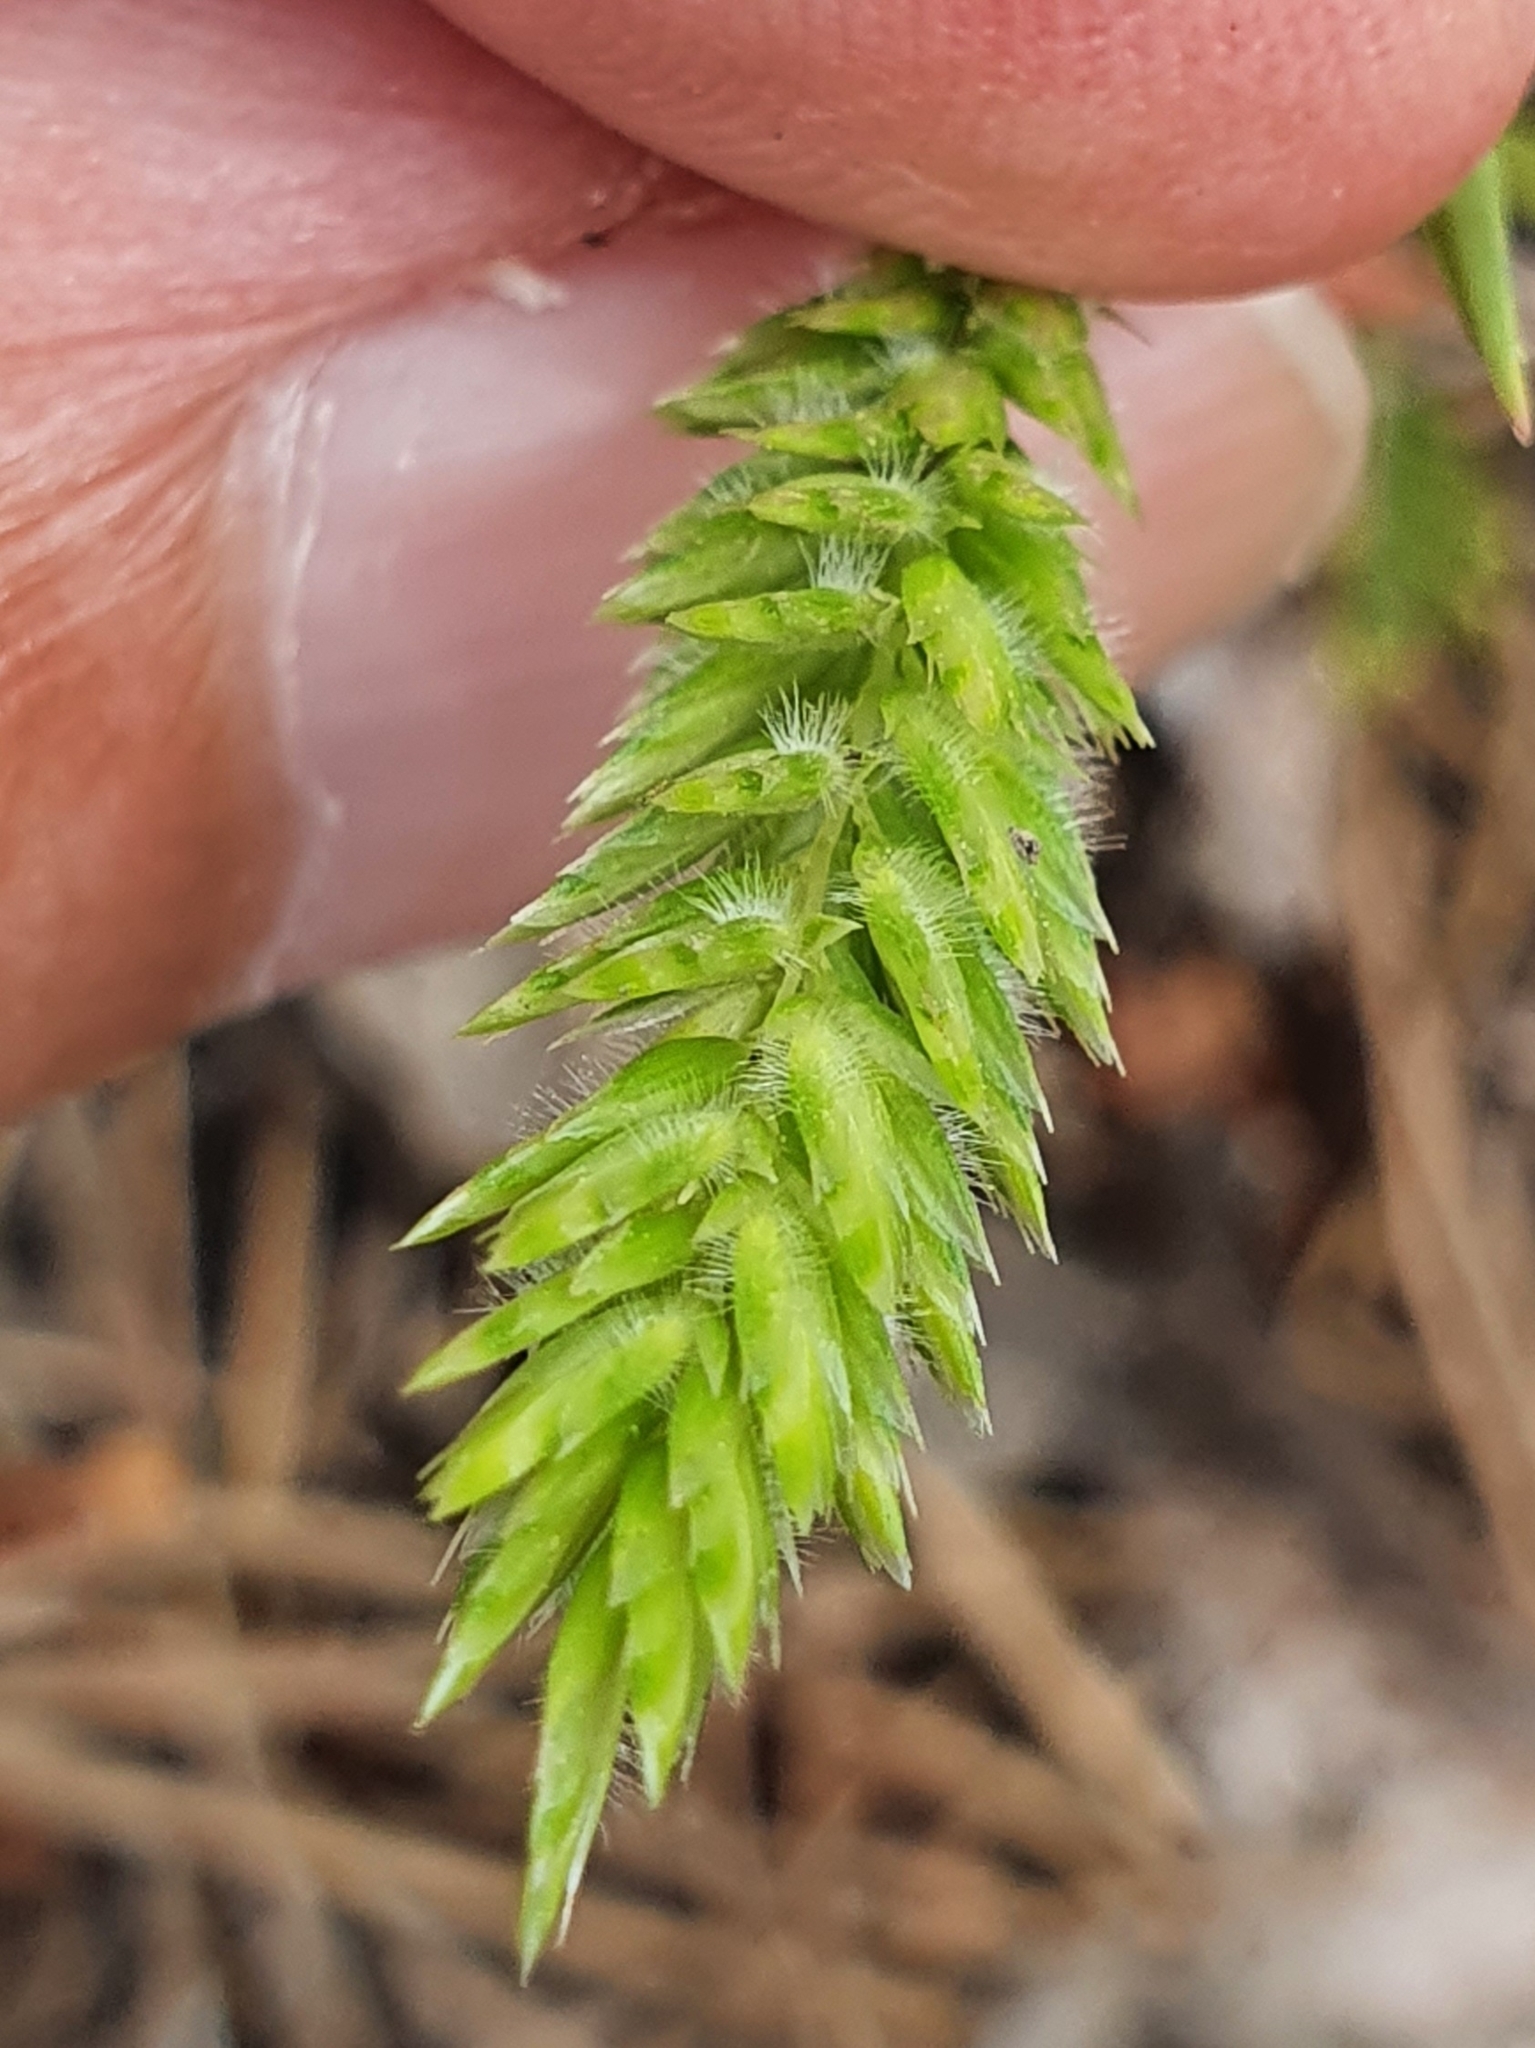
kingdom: Plantae
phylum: Tracheophyta
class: Liliopsida
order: Poales
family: Poaceae
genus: Rostraria
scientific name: Rostraria cristata
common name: Mediterranean hair-grass
